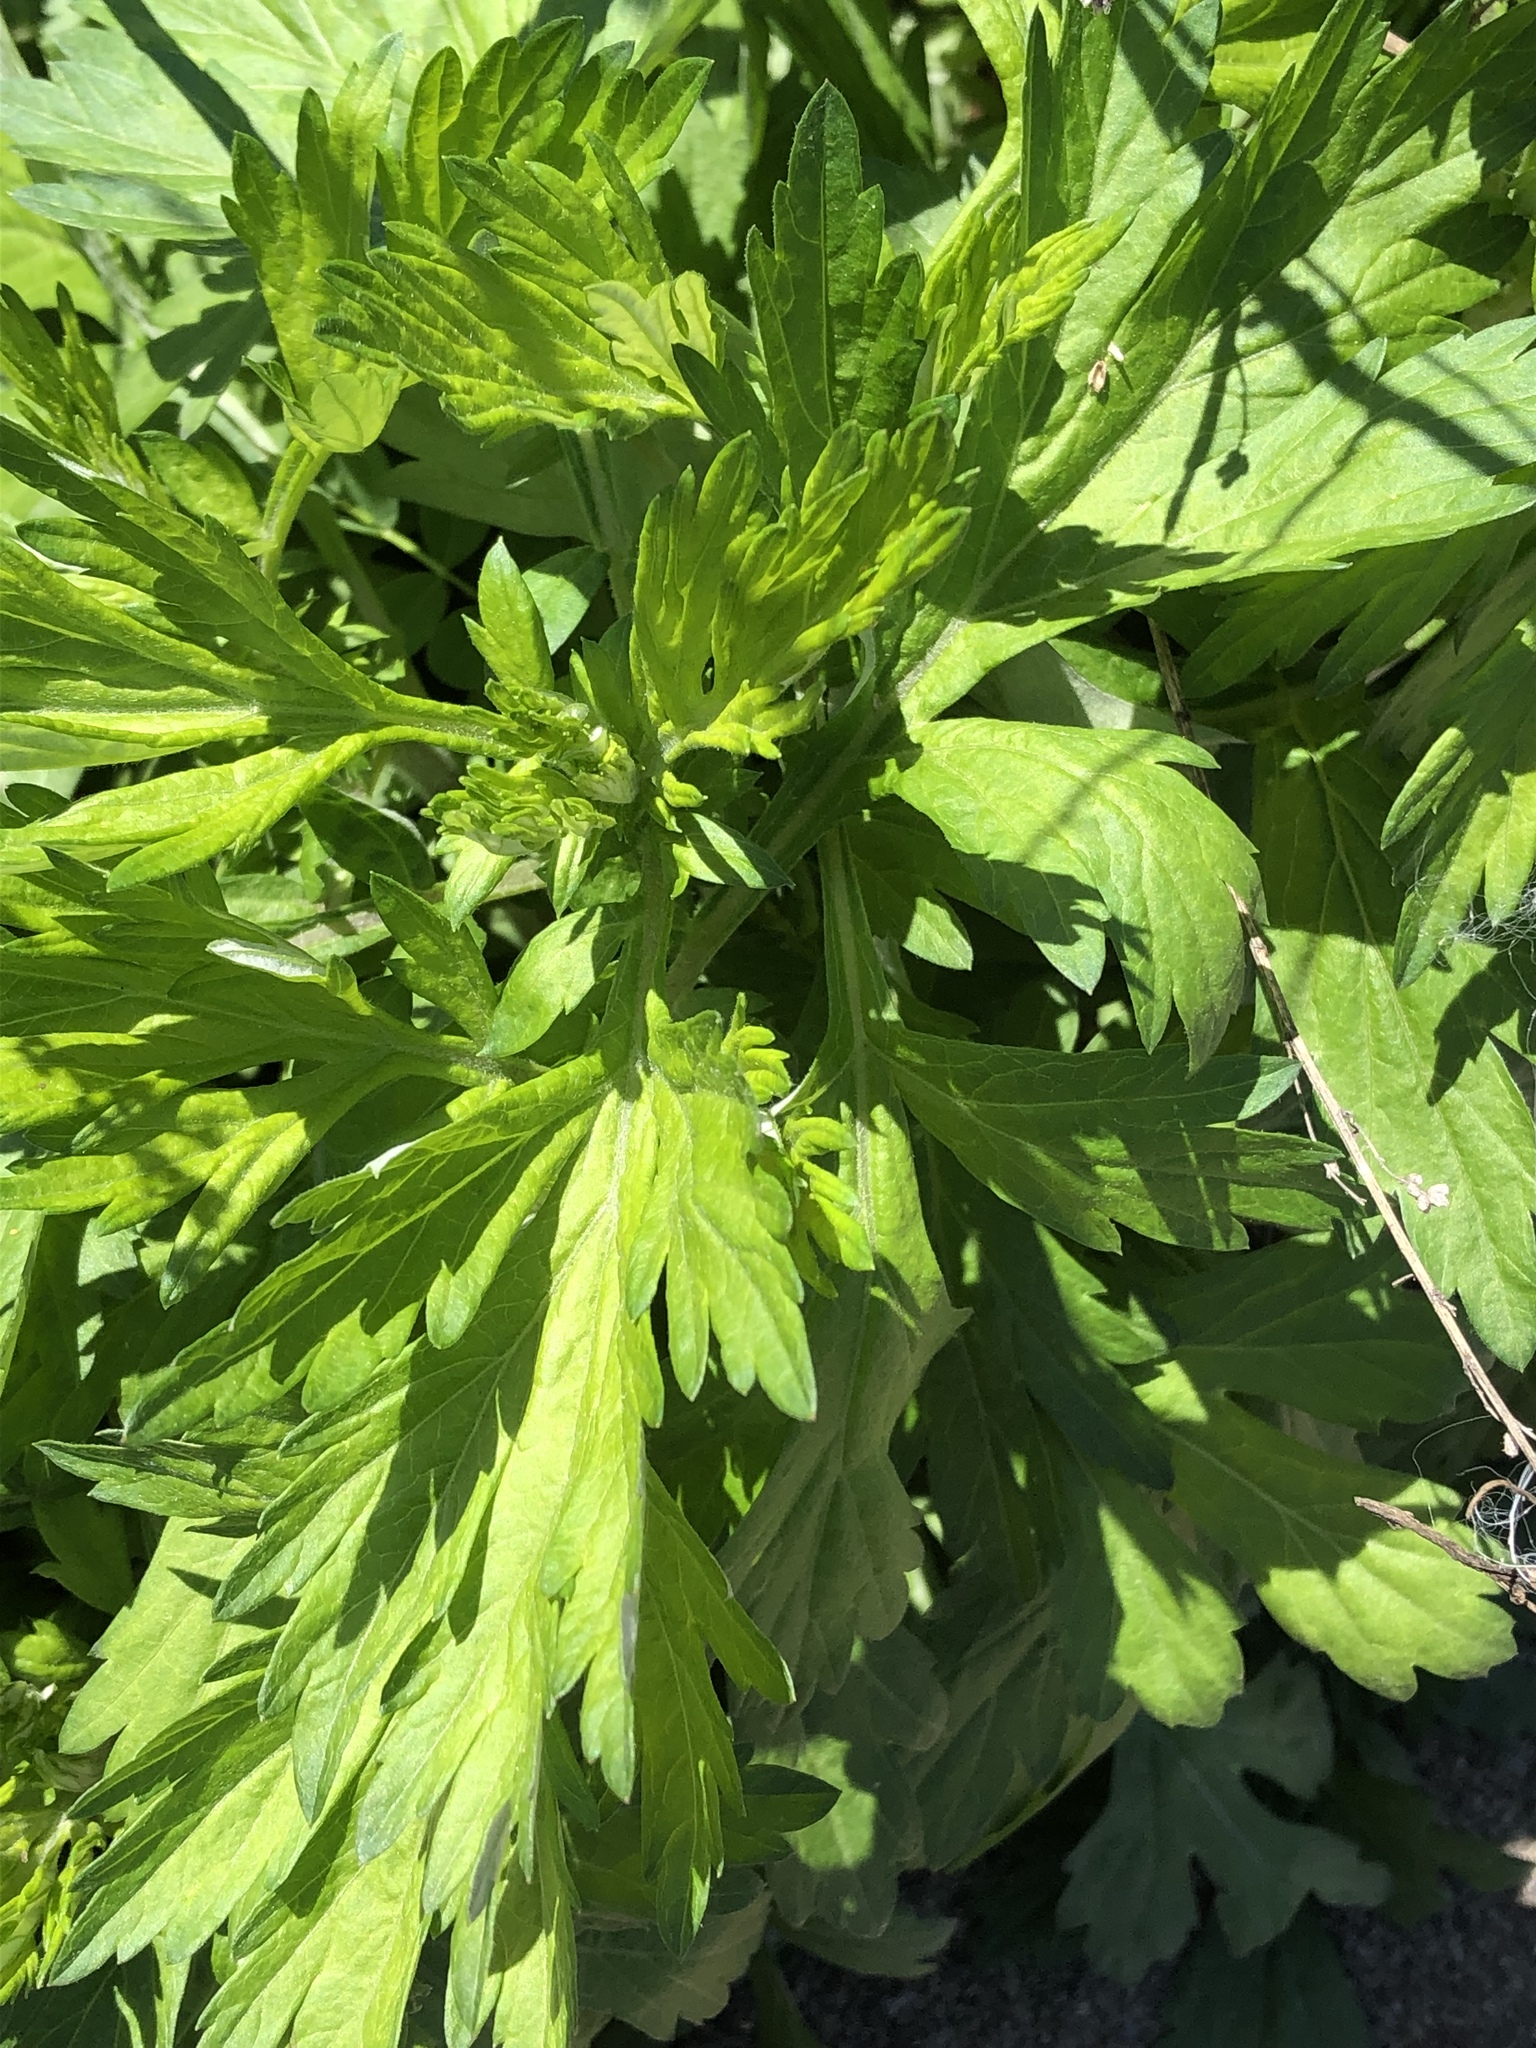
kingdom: Plantae
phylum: Tracheophyta
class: Magnoliopsida
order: Asterales
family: Asteraceae
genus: Artemisia
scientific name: Artemisia vulgaris
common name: Mugwort
